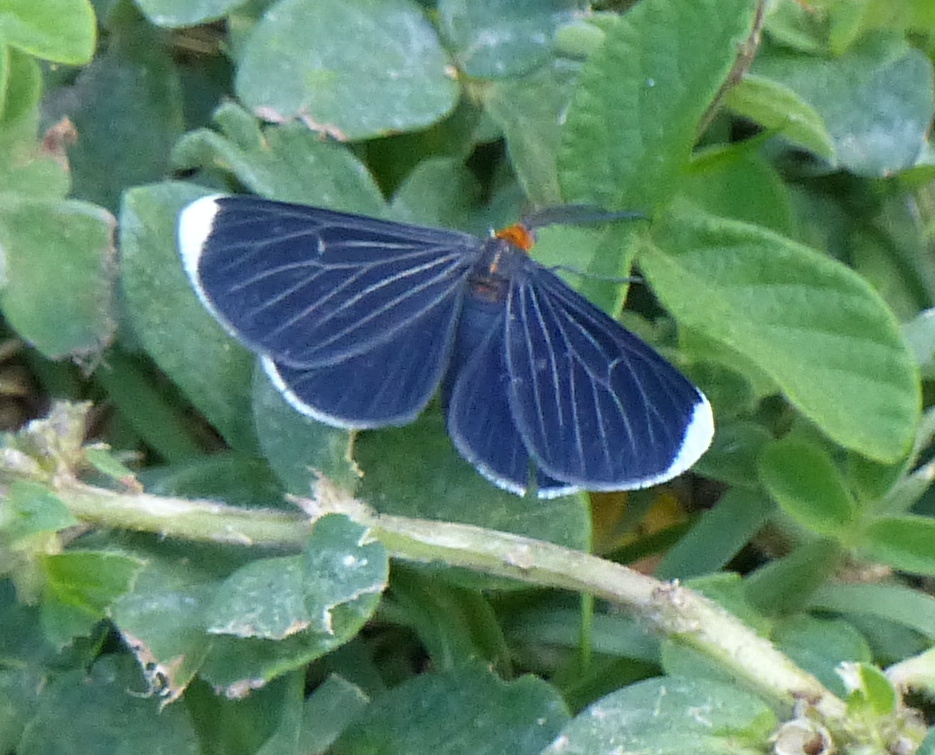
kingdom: Animalia
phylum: Arthropoda
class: Insecta
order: Lepidoptera
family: Geometridae
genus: Melanchroia
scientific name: Melanchroia chephise
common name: White-tipped black
